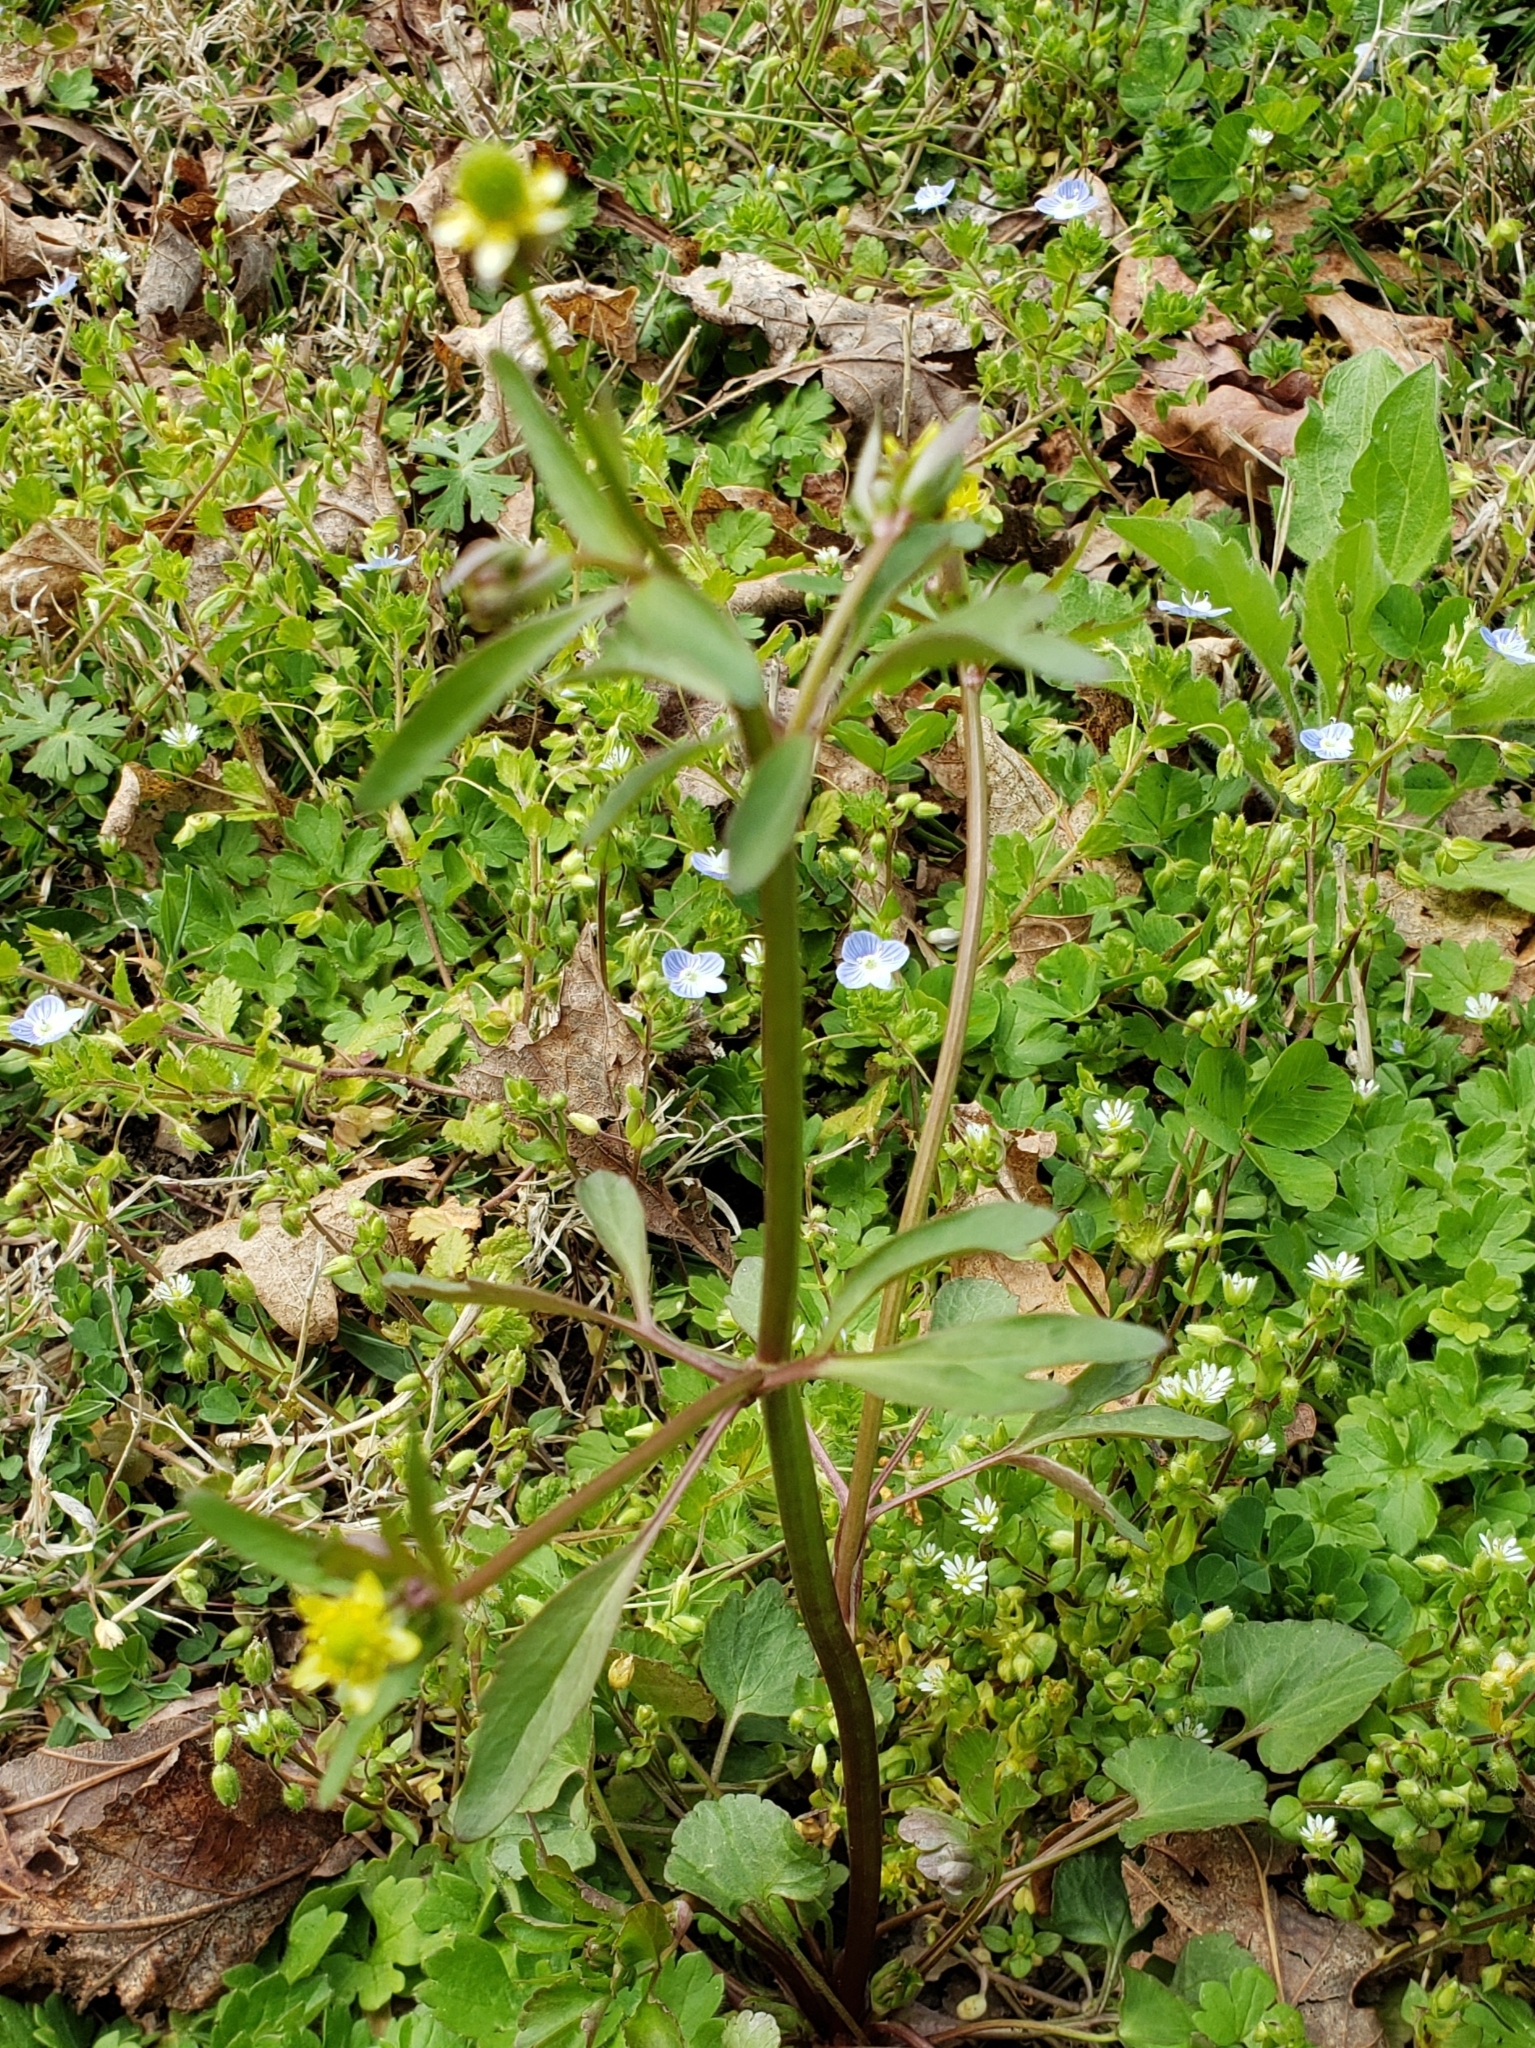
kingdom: Plantae
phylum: Tracheophyta
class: Magnoliopsida
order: Ranunculales
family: Ranunculaceae
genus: Ranunculus
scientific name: Ranunculus abortivus
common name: Early wood buttercup
